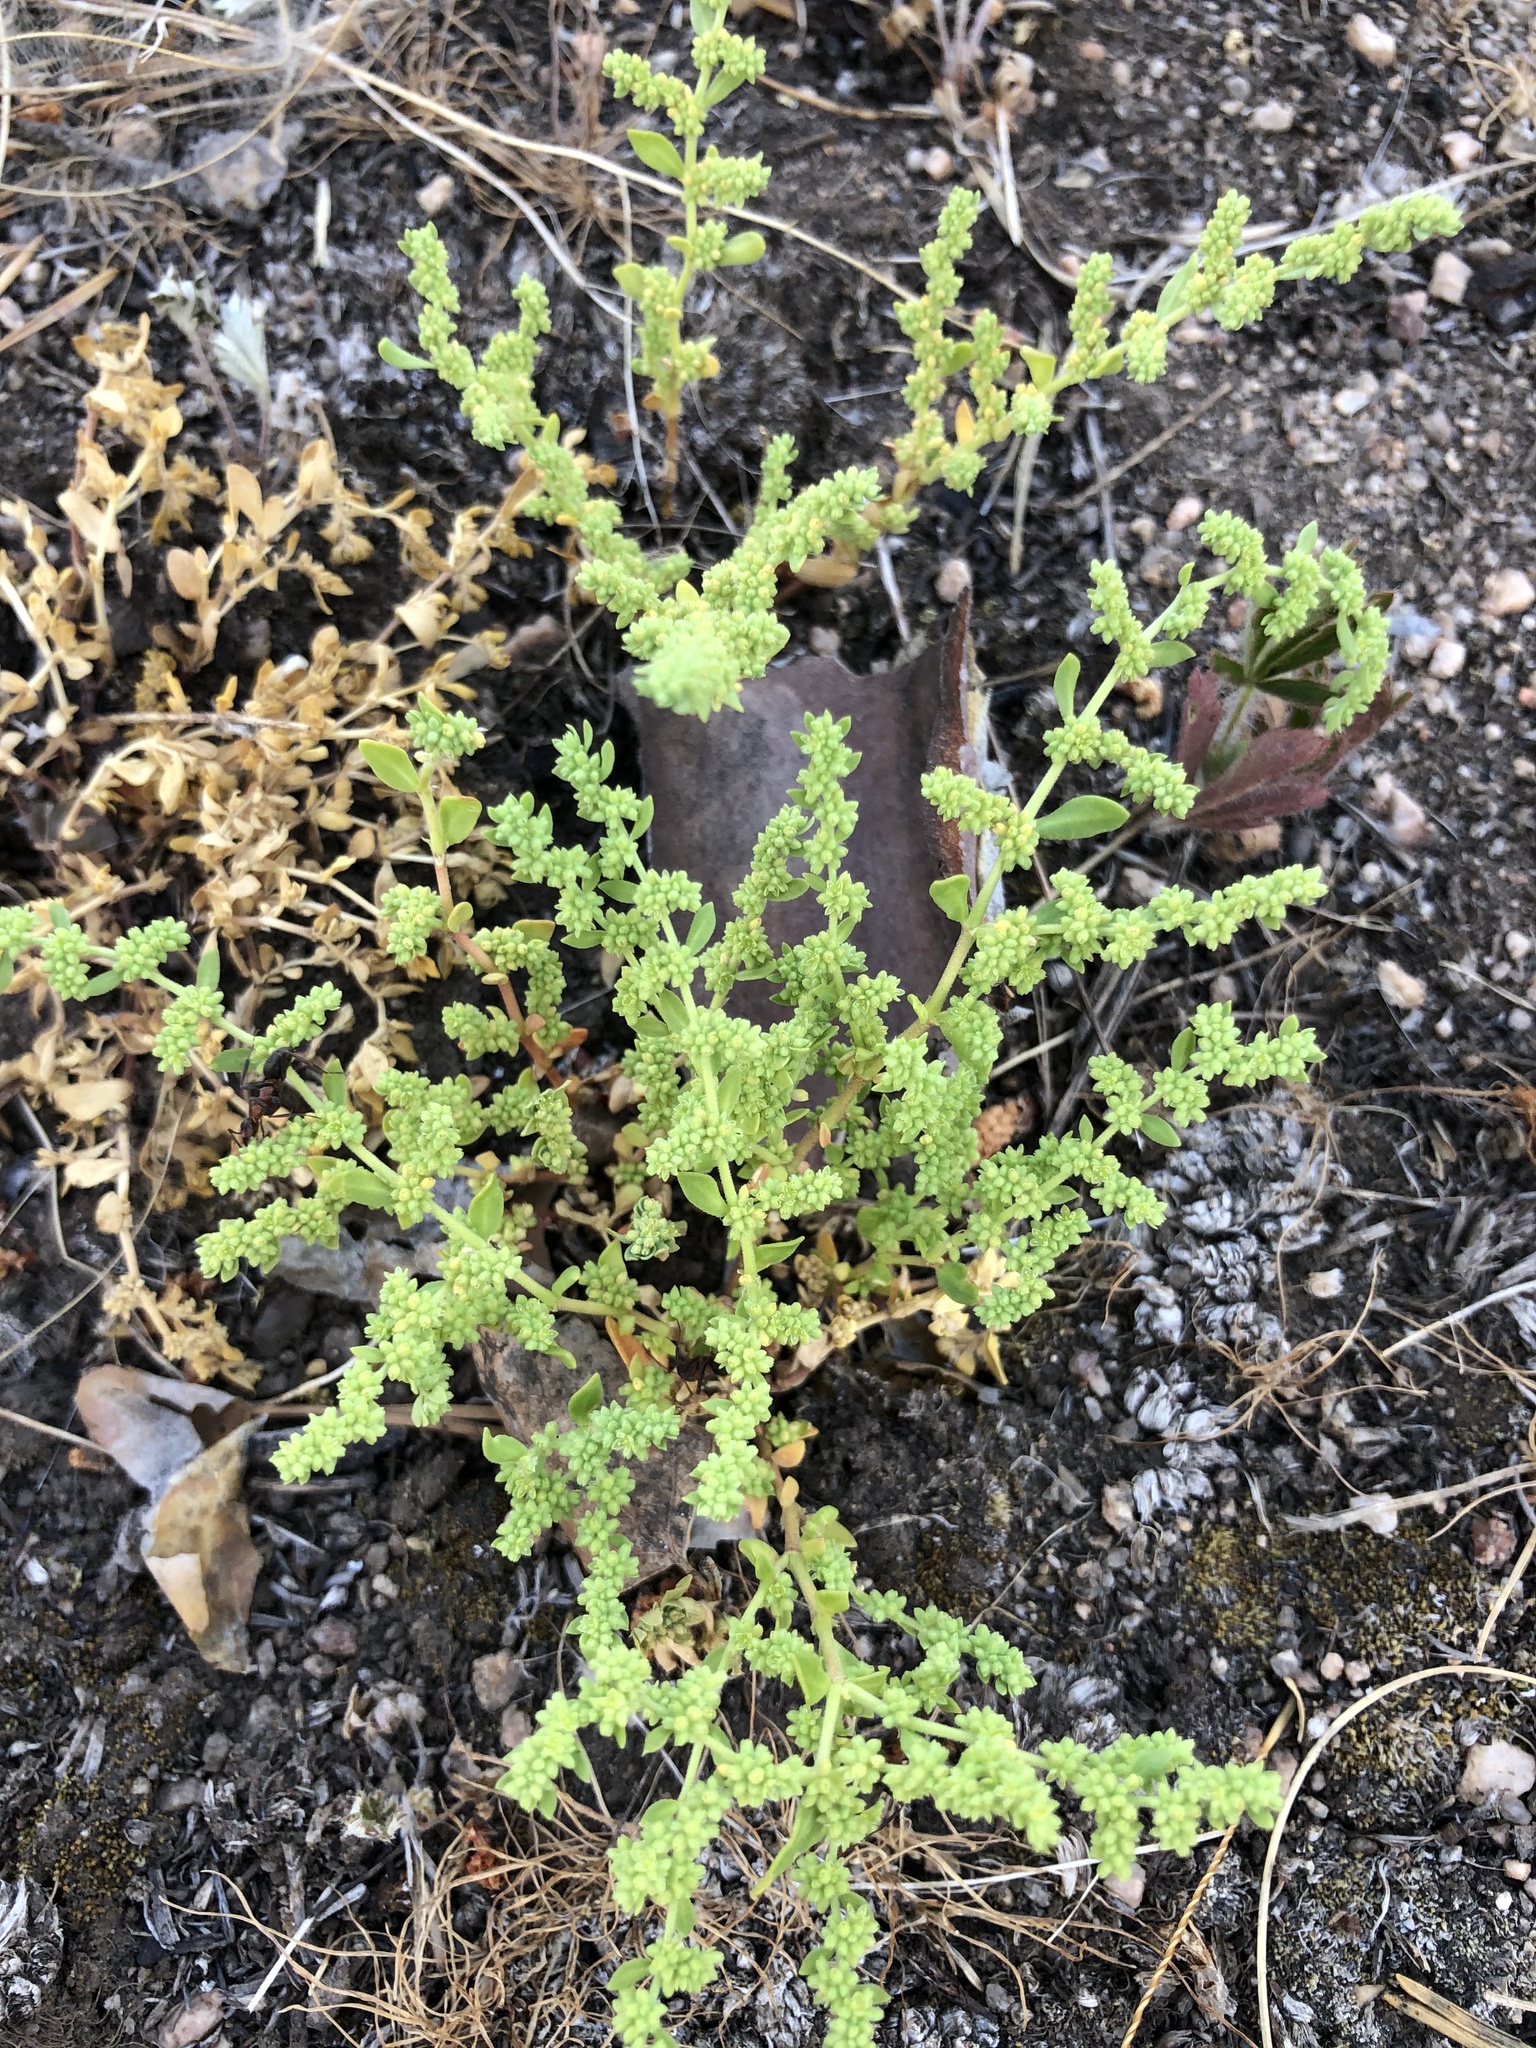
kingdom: Plantae
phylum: Tracheophyta
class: Magnoliopsida
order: Caryophyllales
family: Caryophyllaceae
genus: Herniaria
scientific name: Herniaria glabra
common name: Smooth rupturewort
